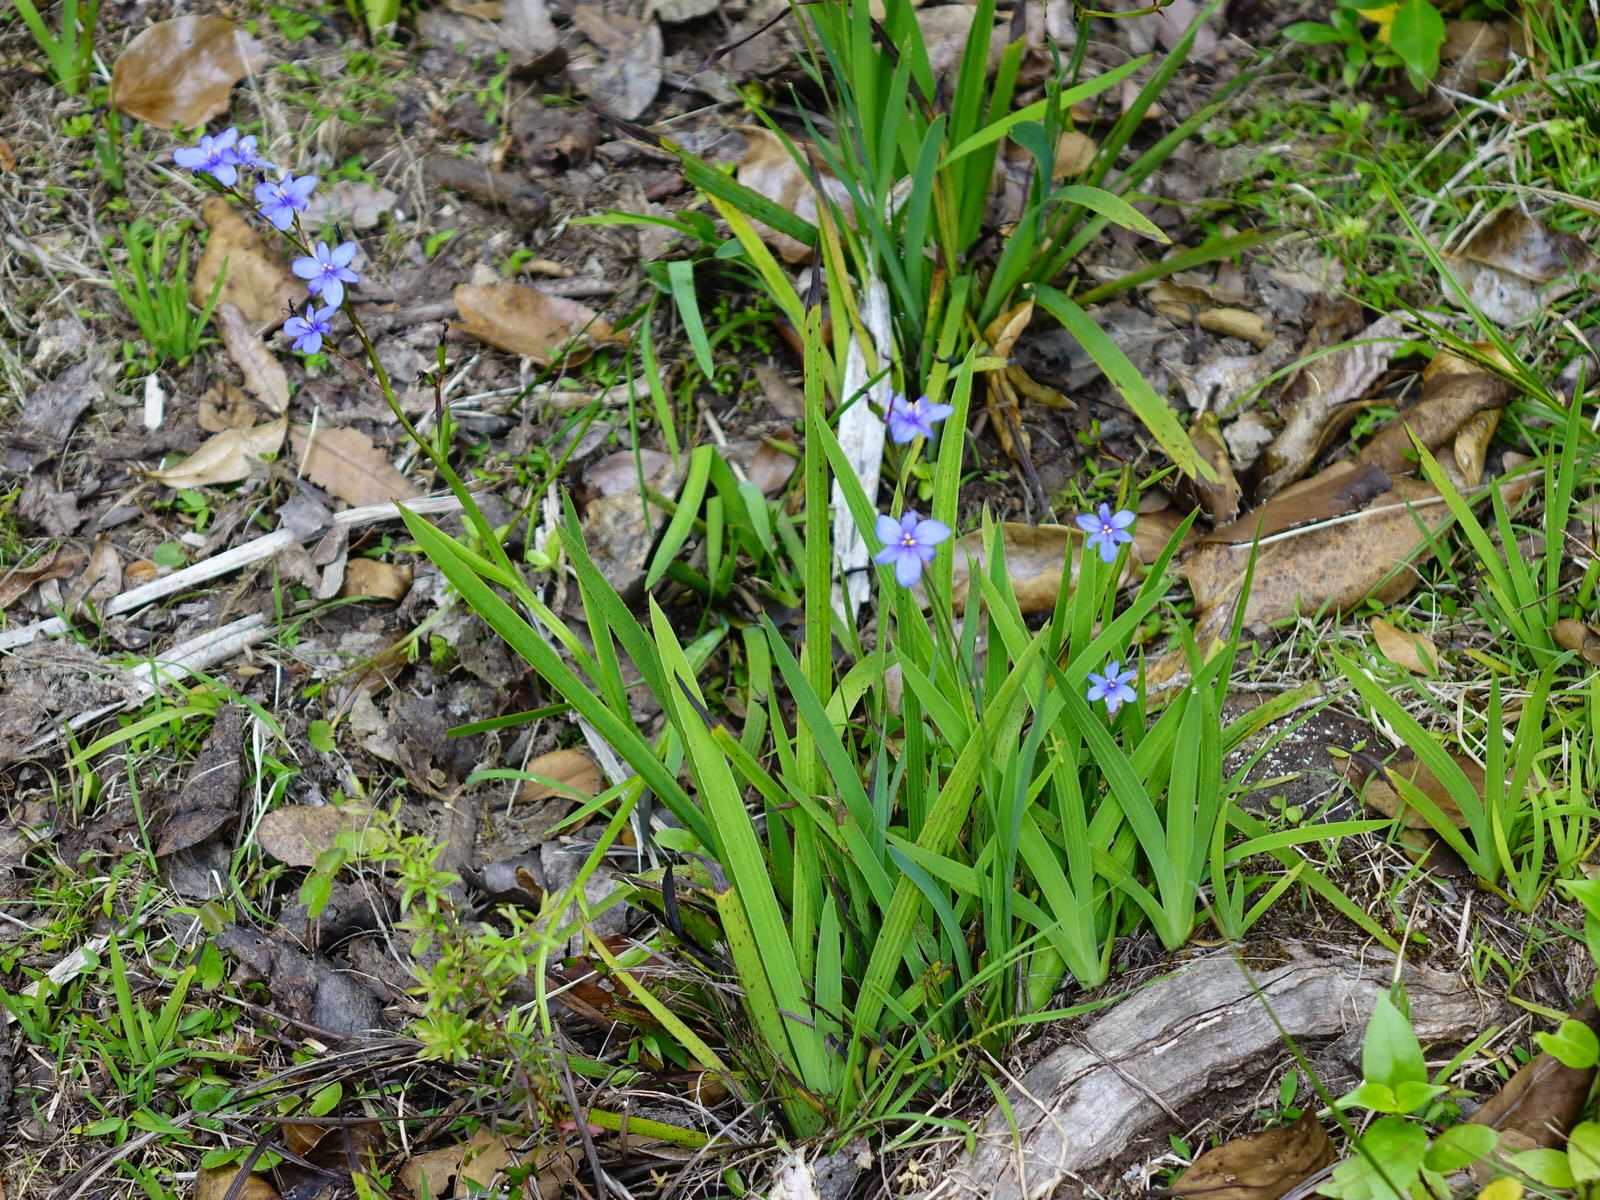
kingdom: Plantae
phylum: Tracheophyta
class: Liliopsida
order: Asparagales
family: Iridaceae
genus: Aristea
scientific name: Aristea ecklonii
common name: Blue corn-lily
